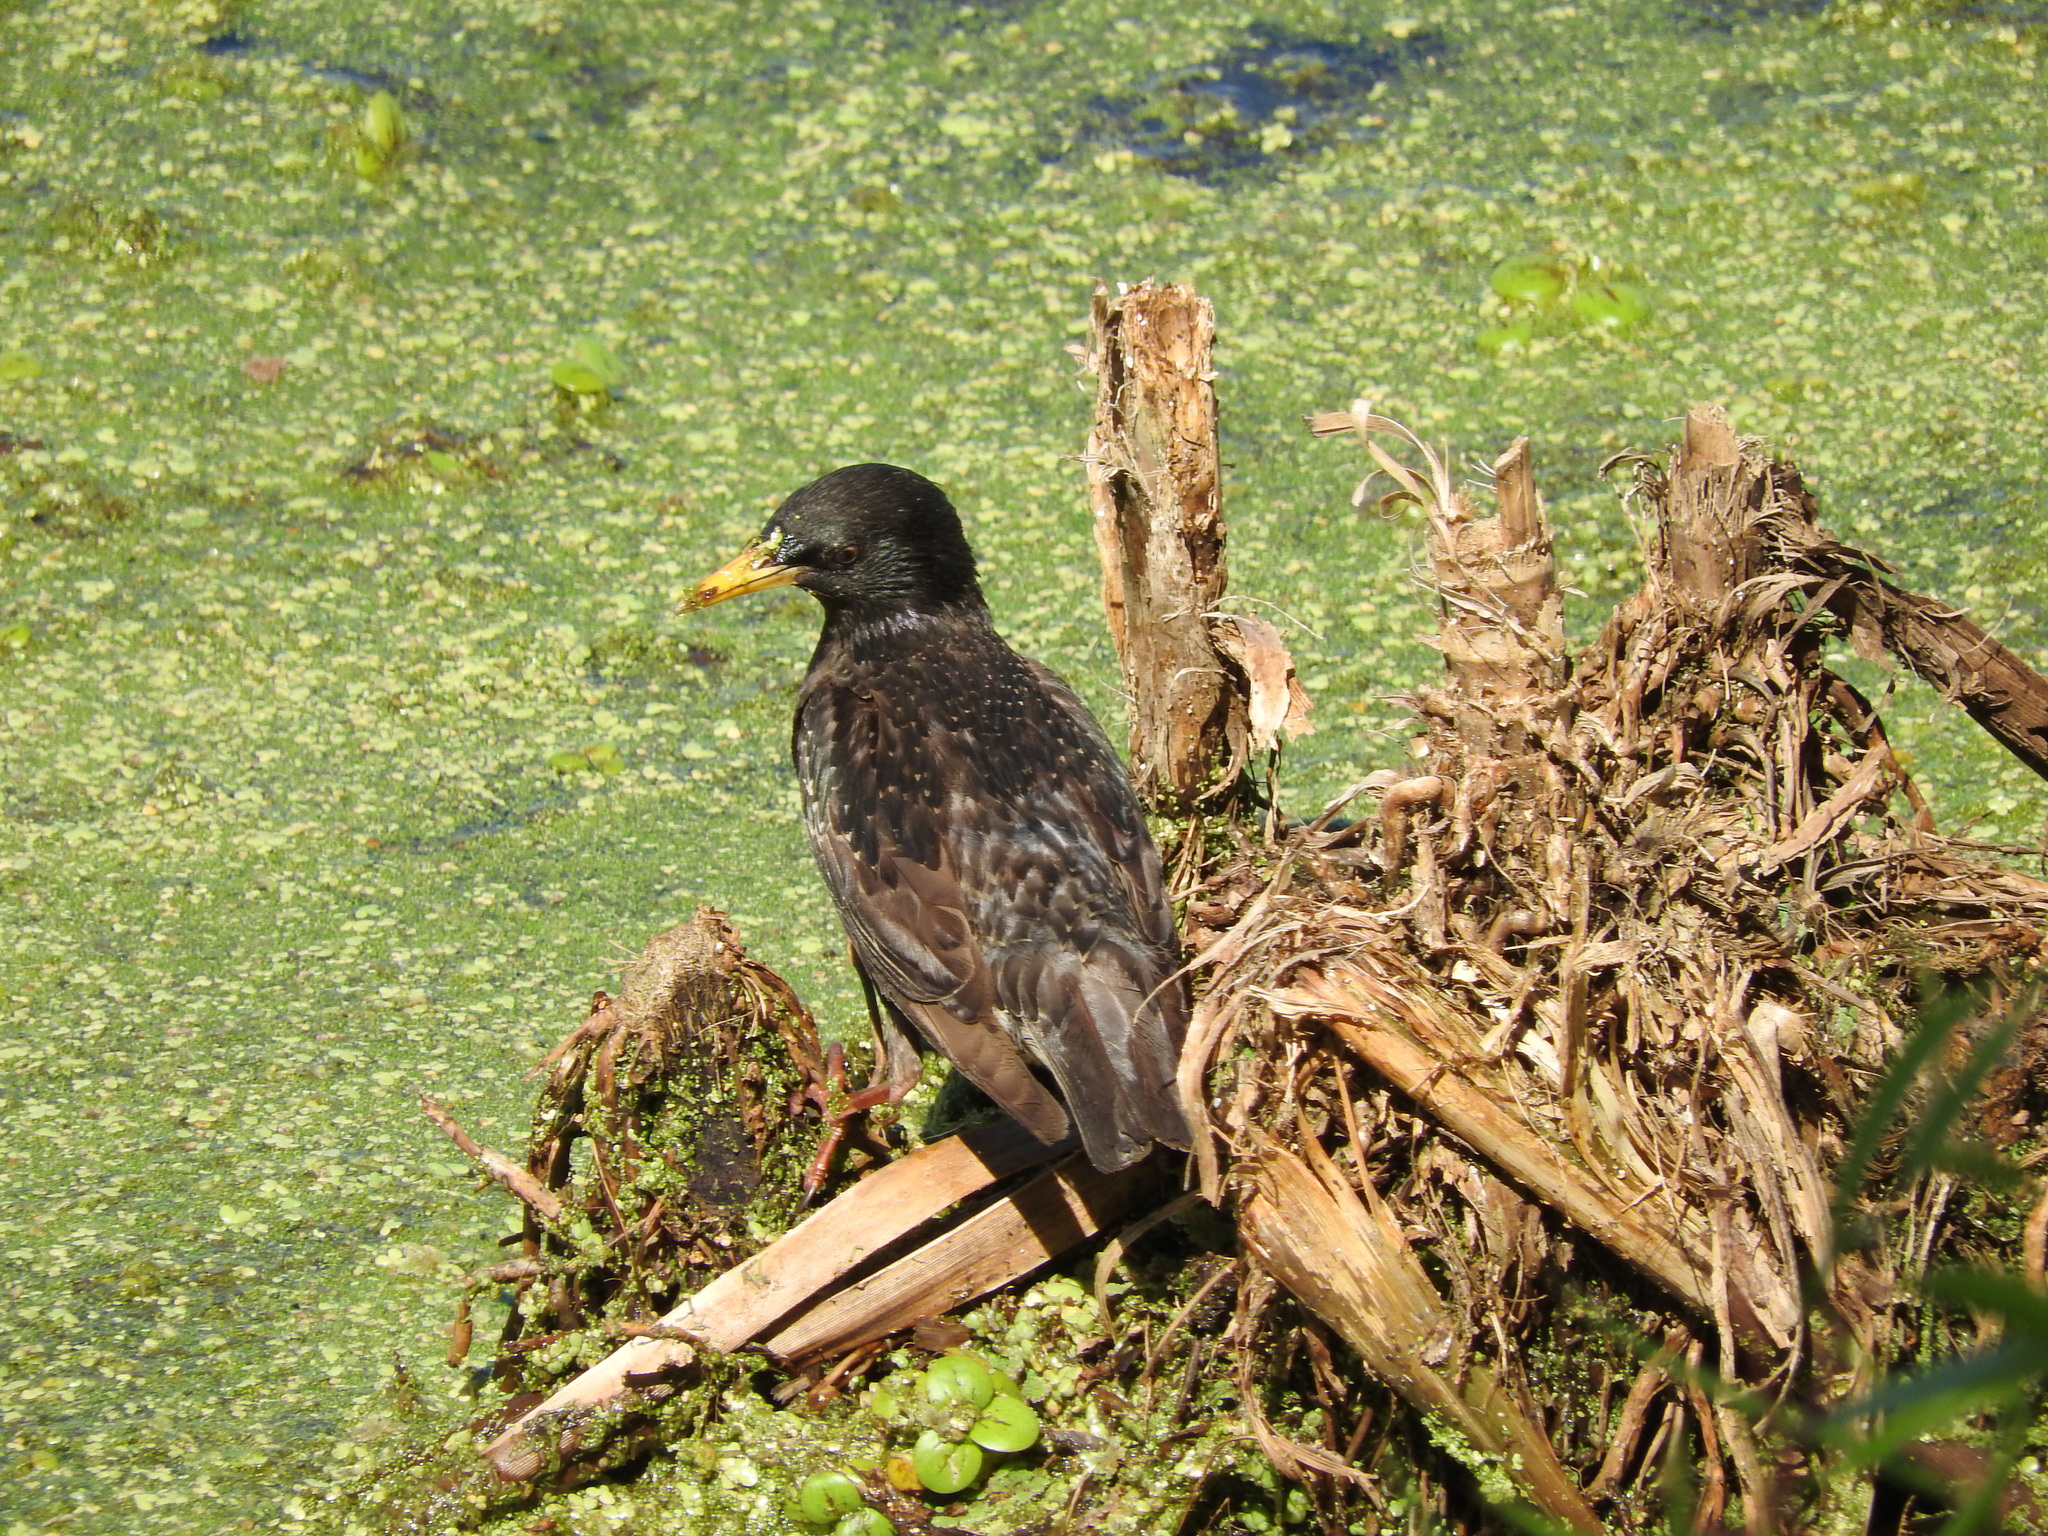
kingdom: Animalia
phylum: Chordata
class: Aves
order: Passeriformes
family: Sturnidae
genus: Sturnus
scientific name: Sturnus vulgaris
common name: Common starling
